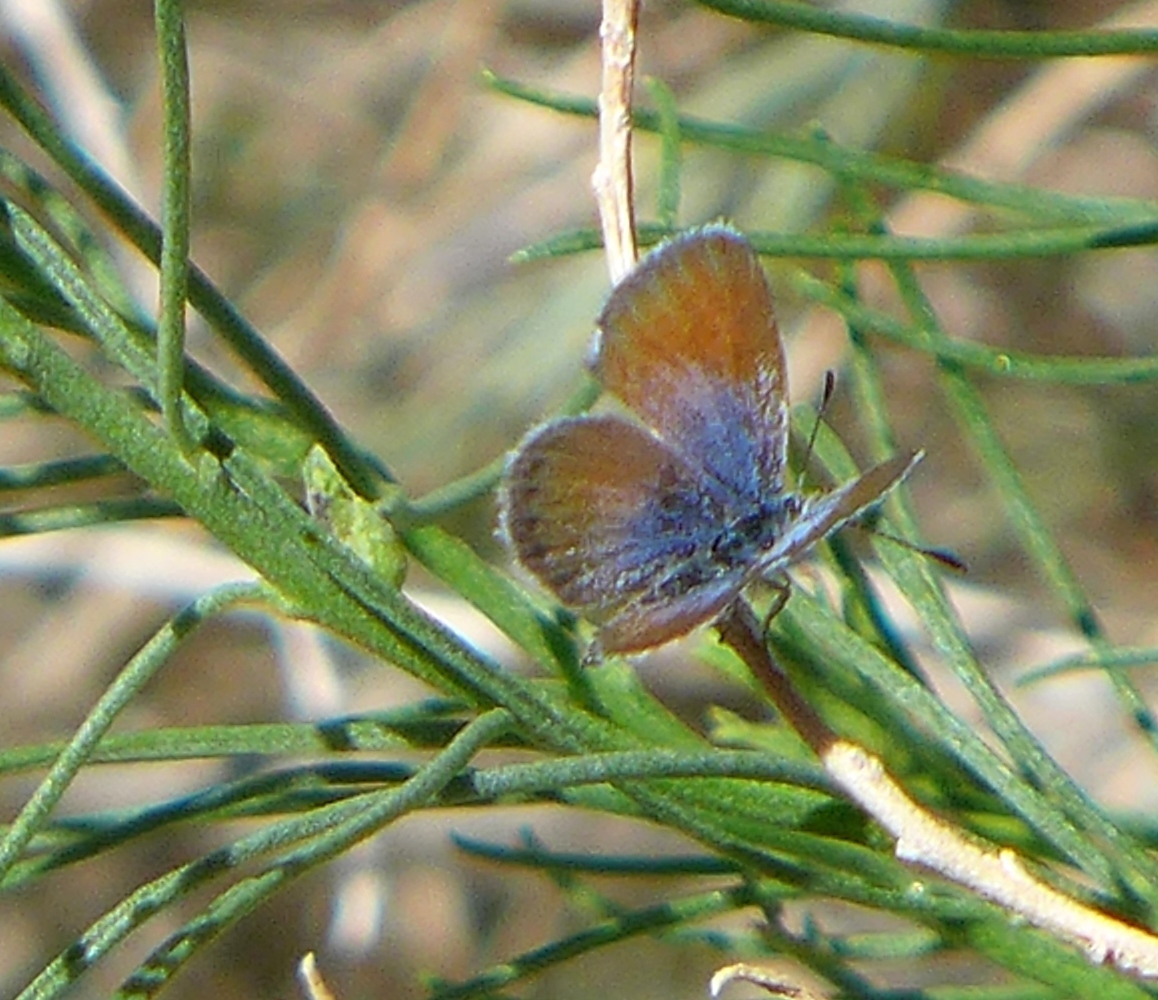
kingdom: Animalia
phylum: Arthropoda
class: Insecta
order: Lepidoptera
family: Lycaenidae
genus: Brephidium
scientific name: Brephidium exilis
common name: Pygmy blue
